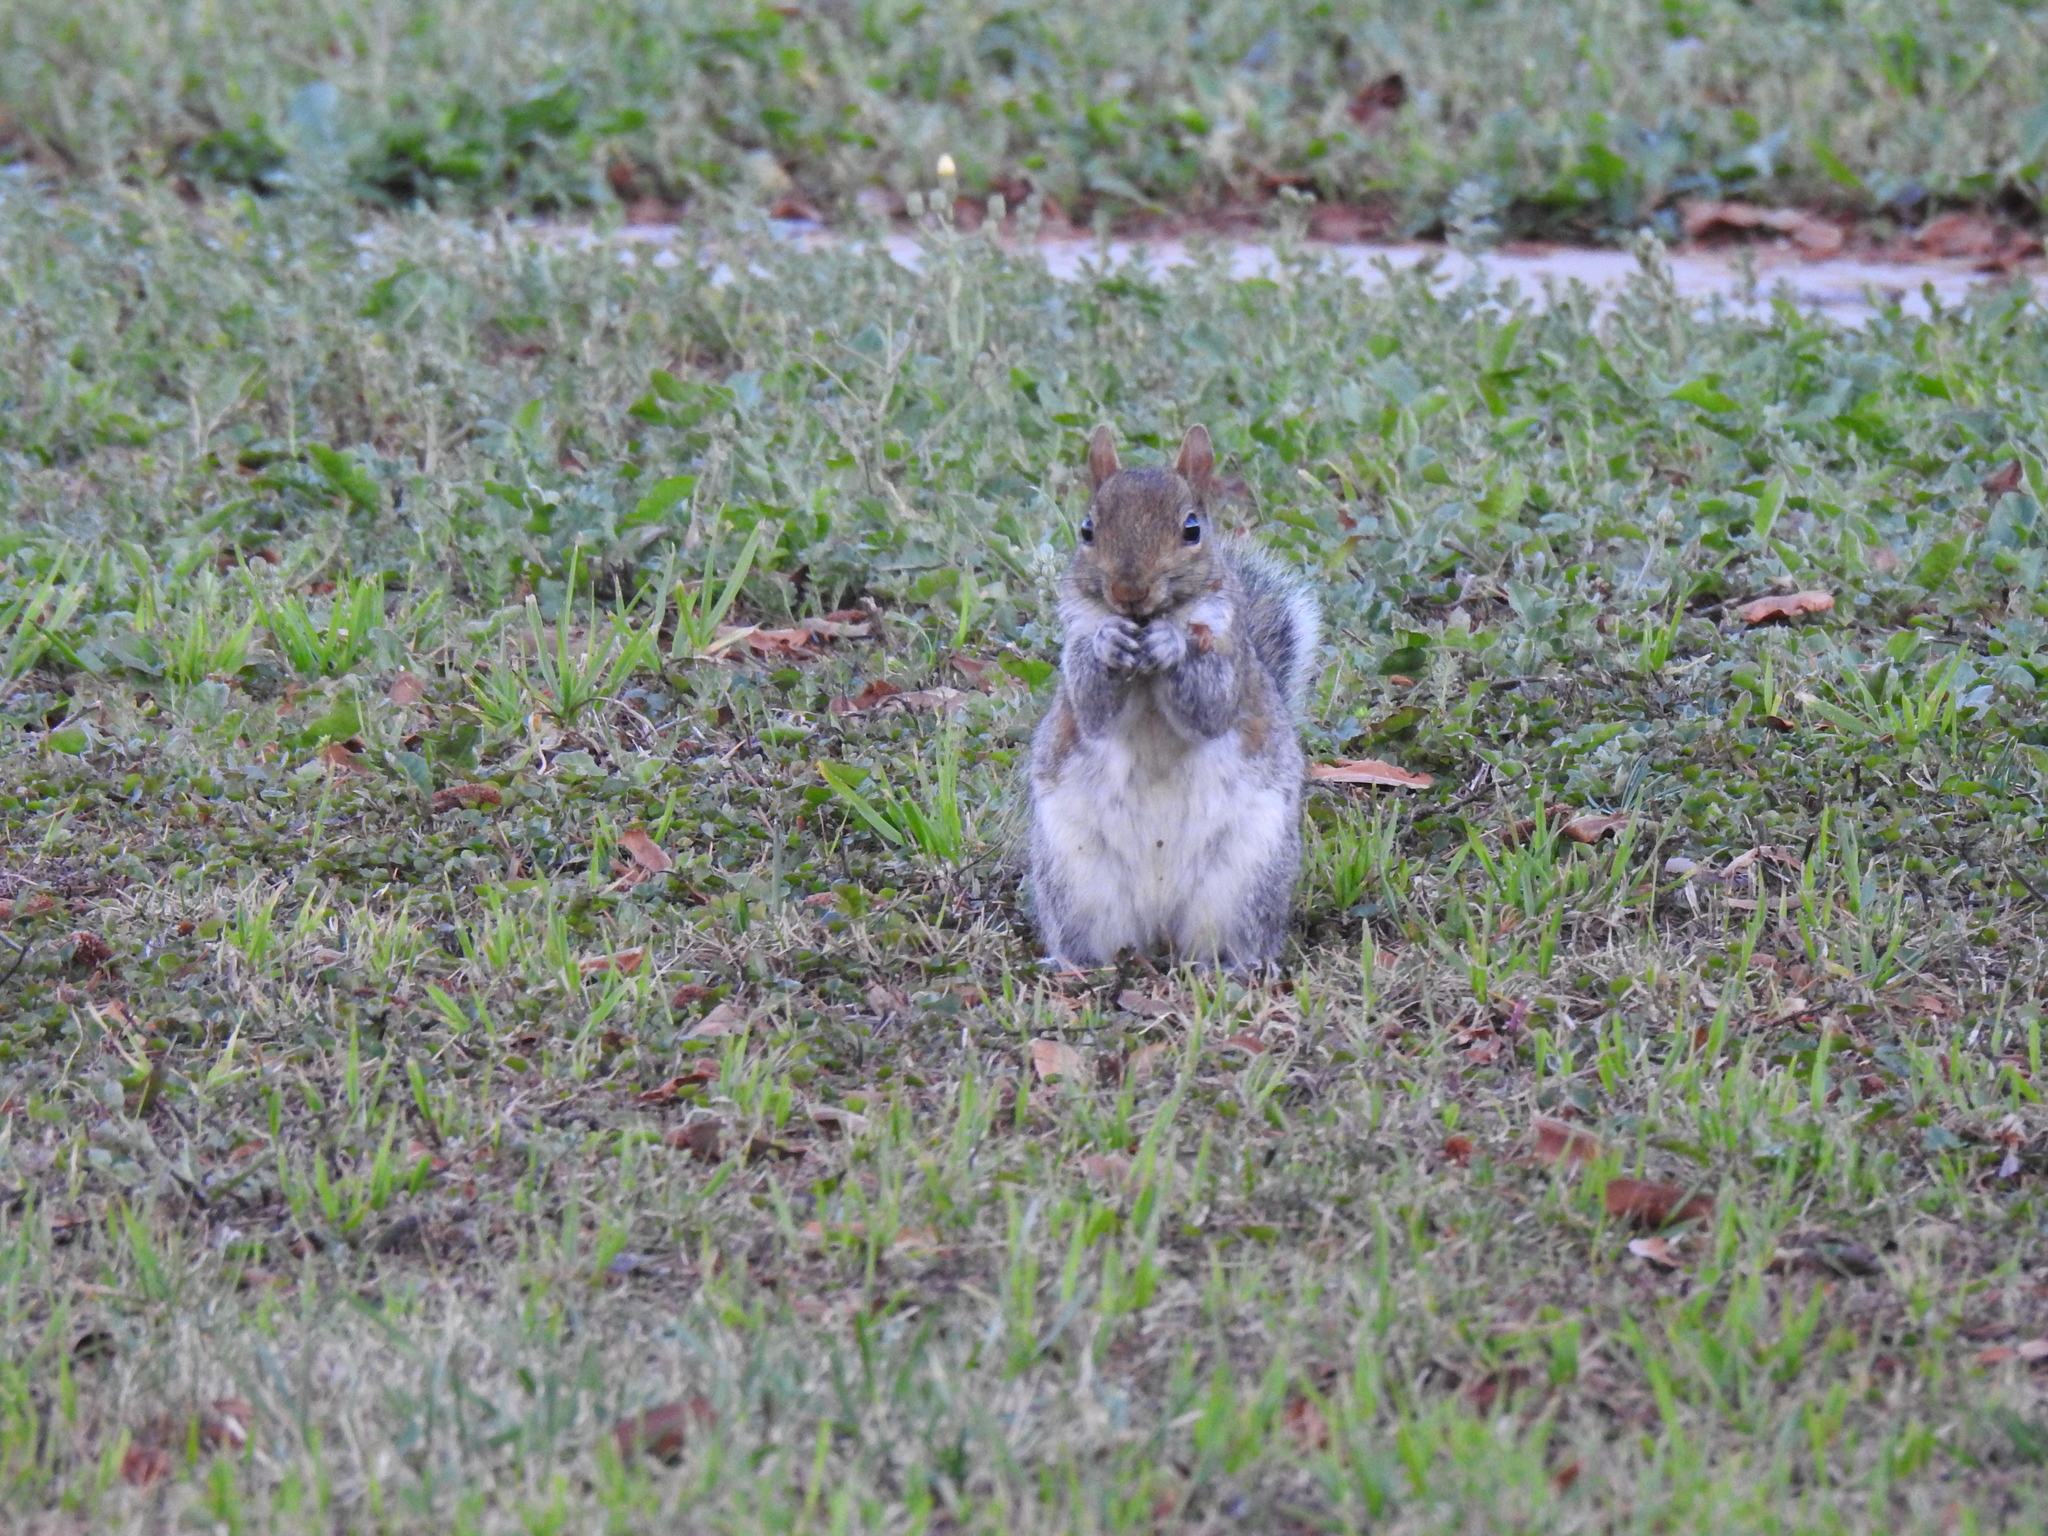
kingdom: Animalia
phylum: Chordata
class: Mammalia
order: Rodentia
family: Sciuridae
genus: Sciurus
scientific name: Sciurus carolinensis
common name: Eastern gray squirrel
